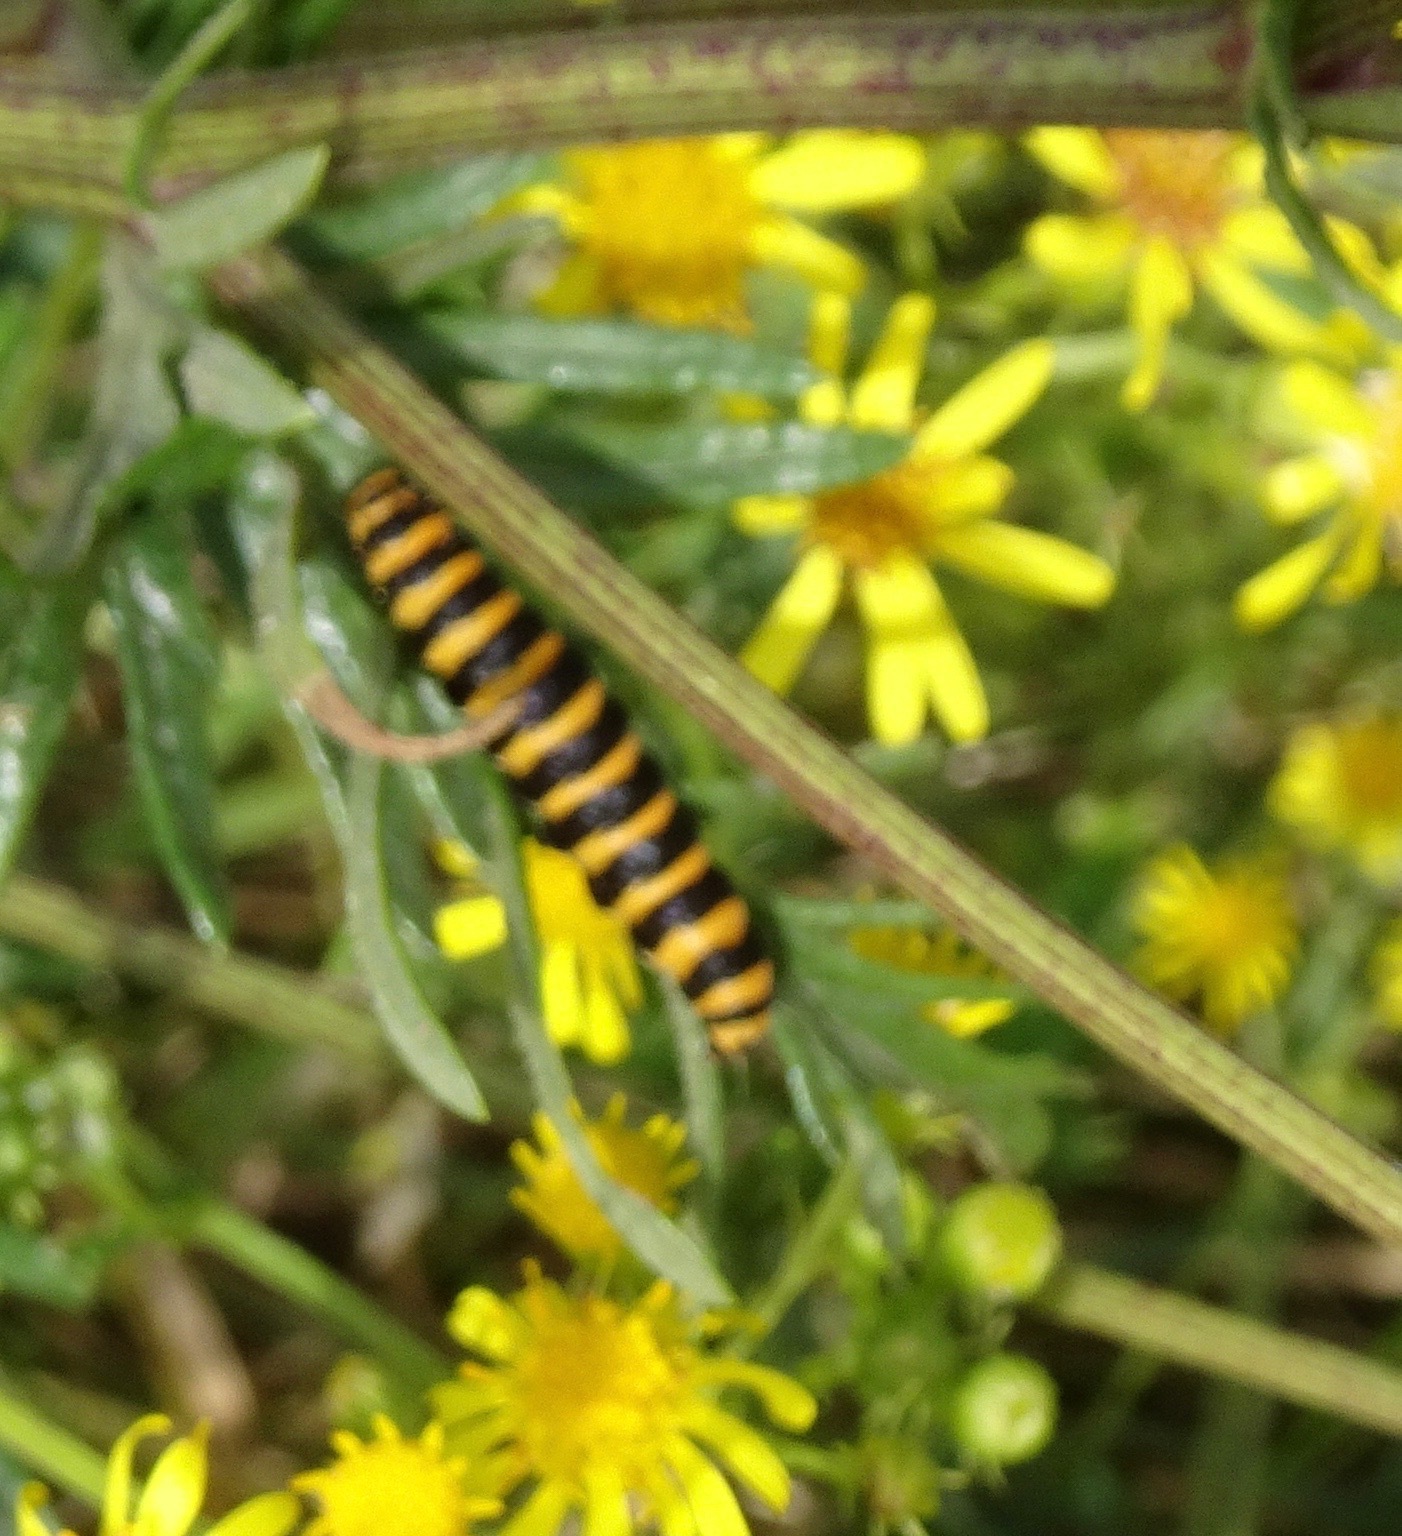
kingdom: Animalia
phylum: Arthropoda
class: Insecta
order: Lepidoptera
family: Erebidae
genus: Tyria
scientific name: Tyria jacobaeae
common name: Cinnabar
